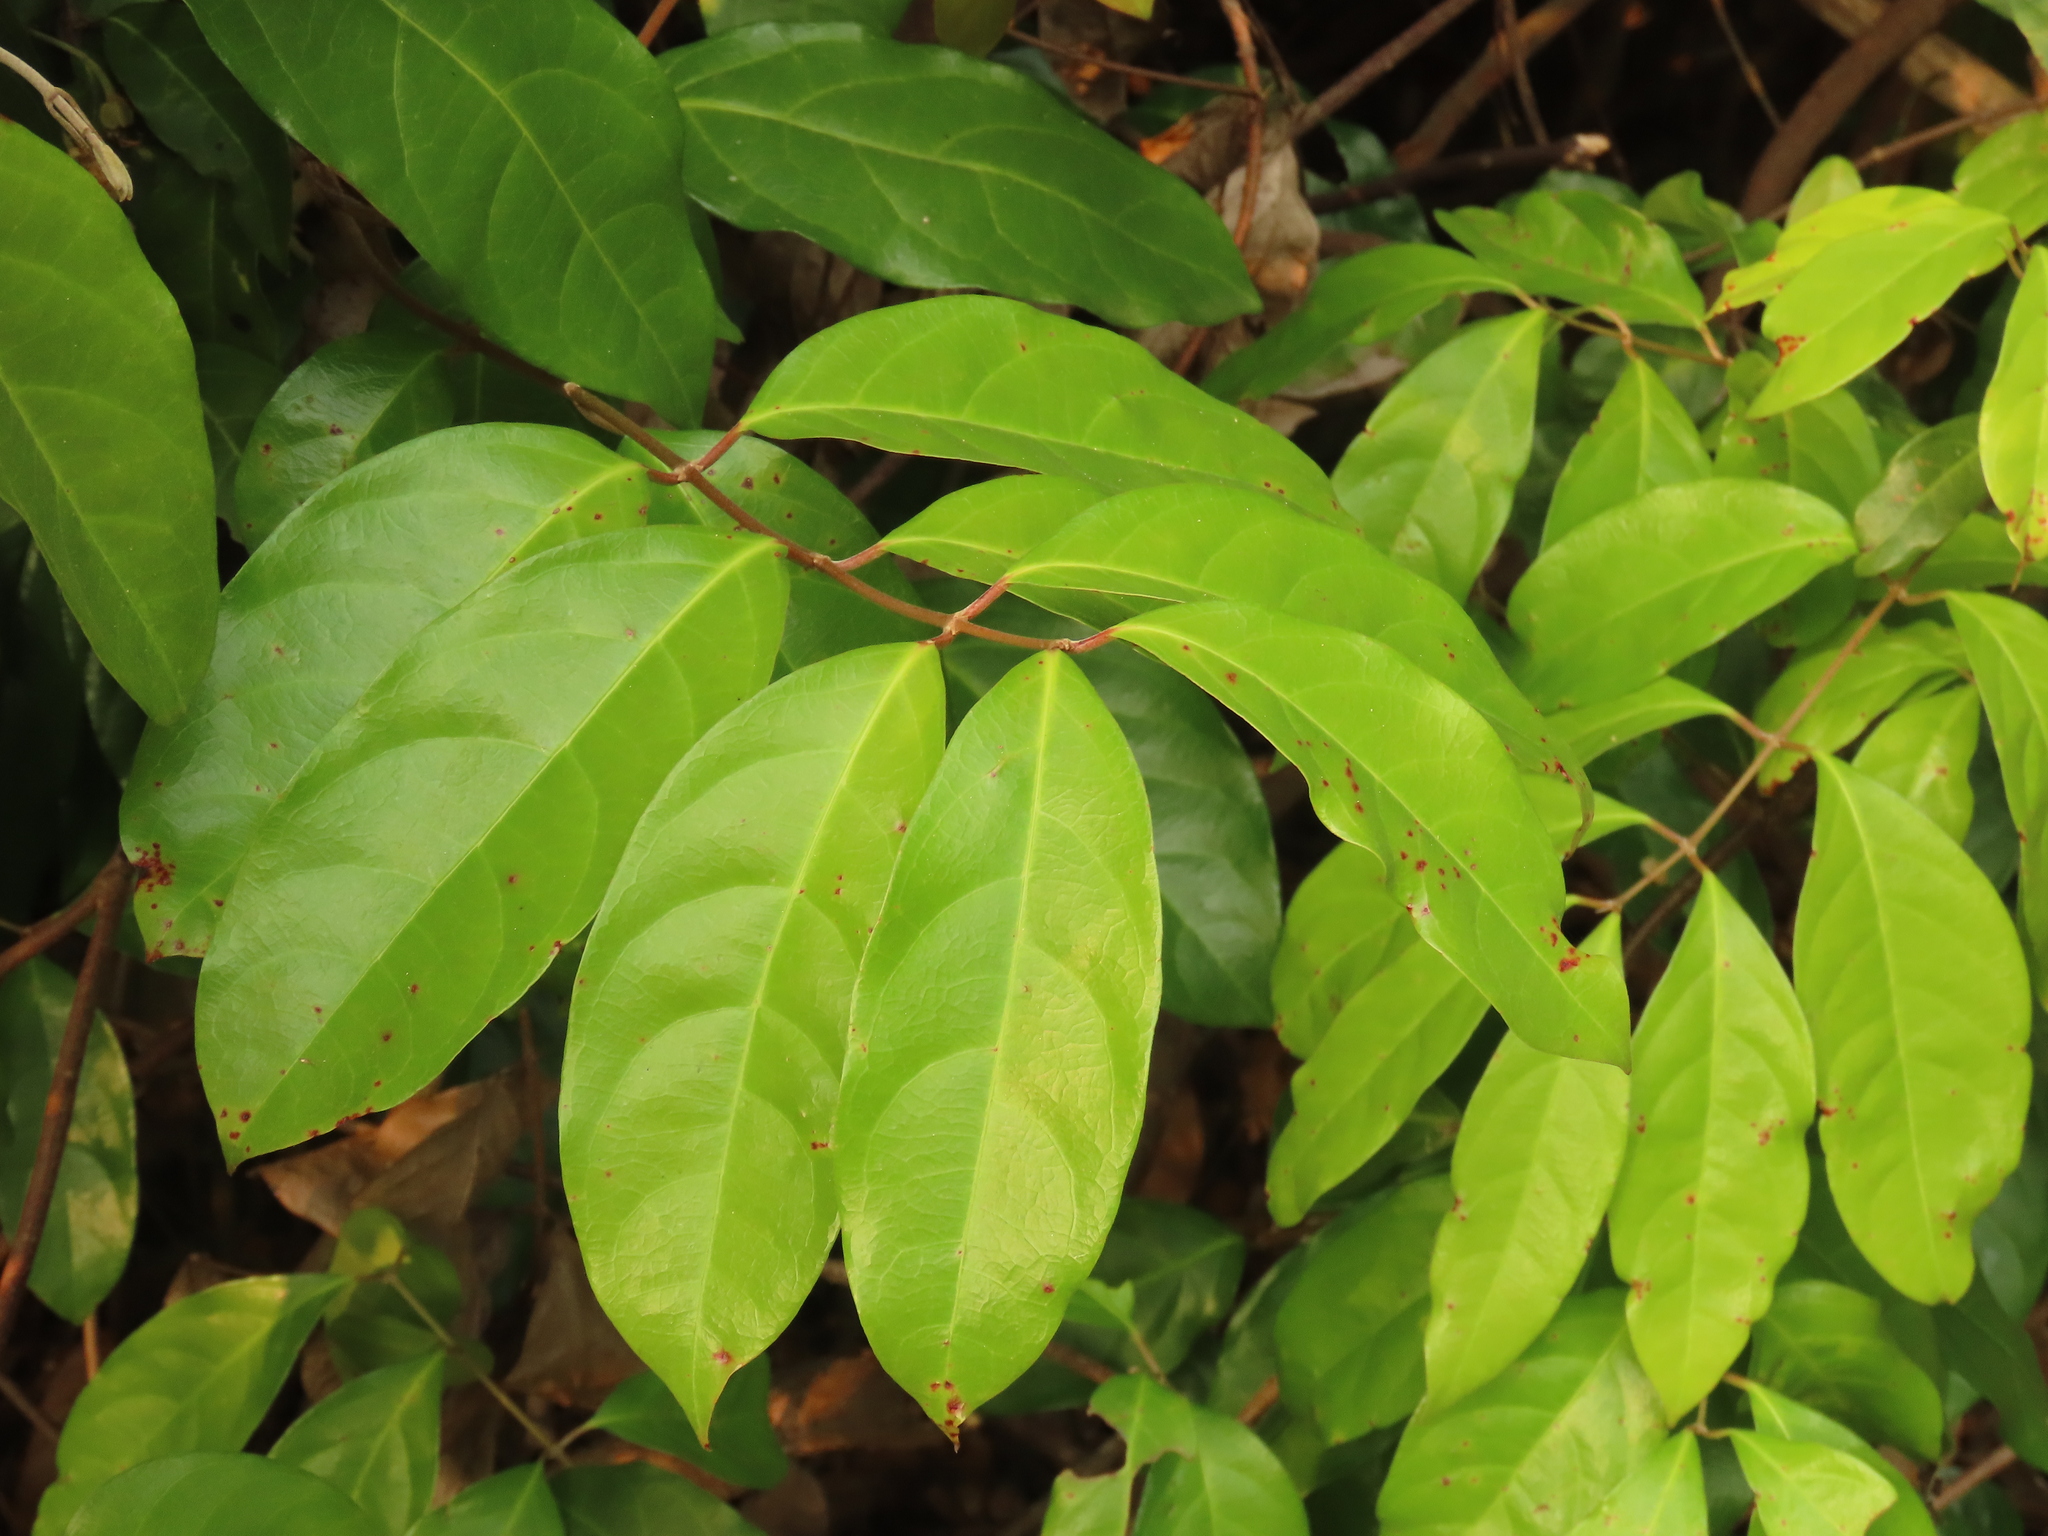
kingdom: Plantae
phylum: Tracheophyta
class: Magnoliopsida
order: Malpighiales
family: Malpighiaceae
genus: Hiptage
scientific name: Hiptage benghalensis
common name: Hiptage
